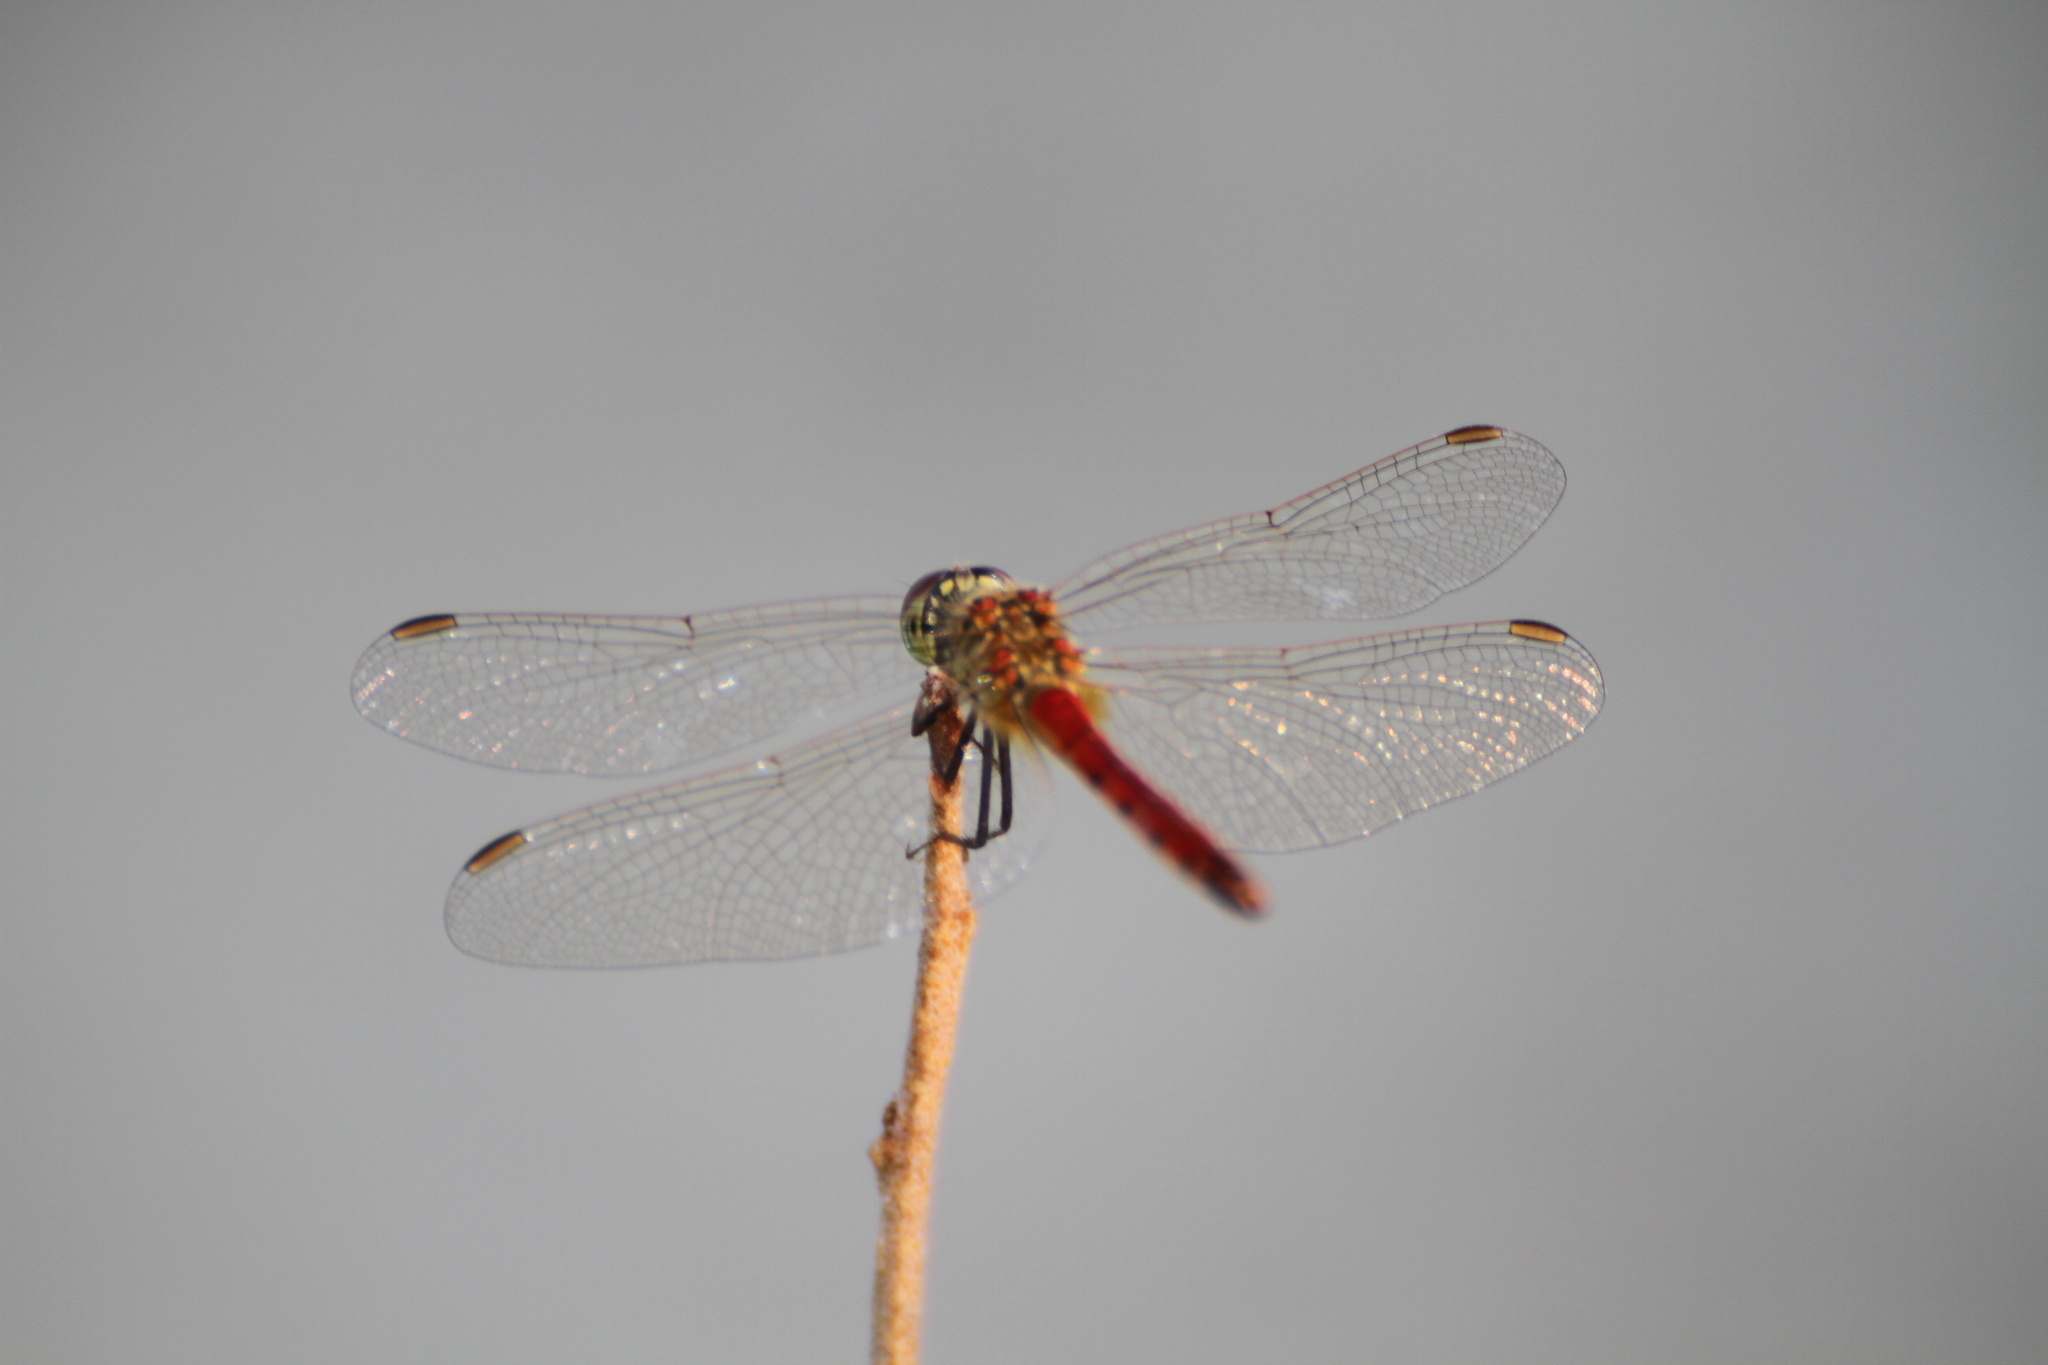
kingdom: Animalia
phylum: Arthropoda
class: Insecta
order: Odonata
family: Libellulidae
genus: Sympetrum
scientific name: Sympetrum depressiusculum
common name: Spotted darter
